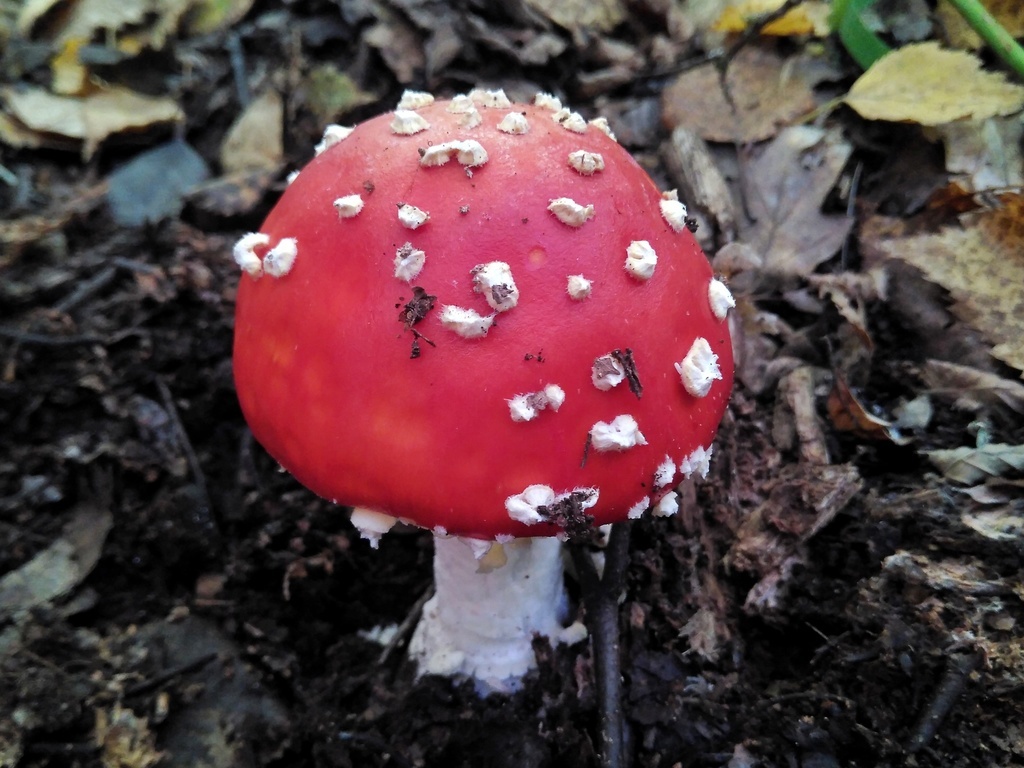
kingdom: Fungi
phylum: Basidiomycota
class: Agaricomycetes
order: Agaricales
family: Amanitaceae
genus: Amanita
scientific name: Amanita muscaria
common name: Fly agaric
